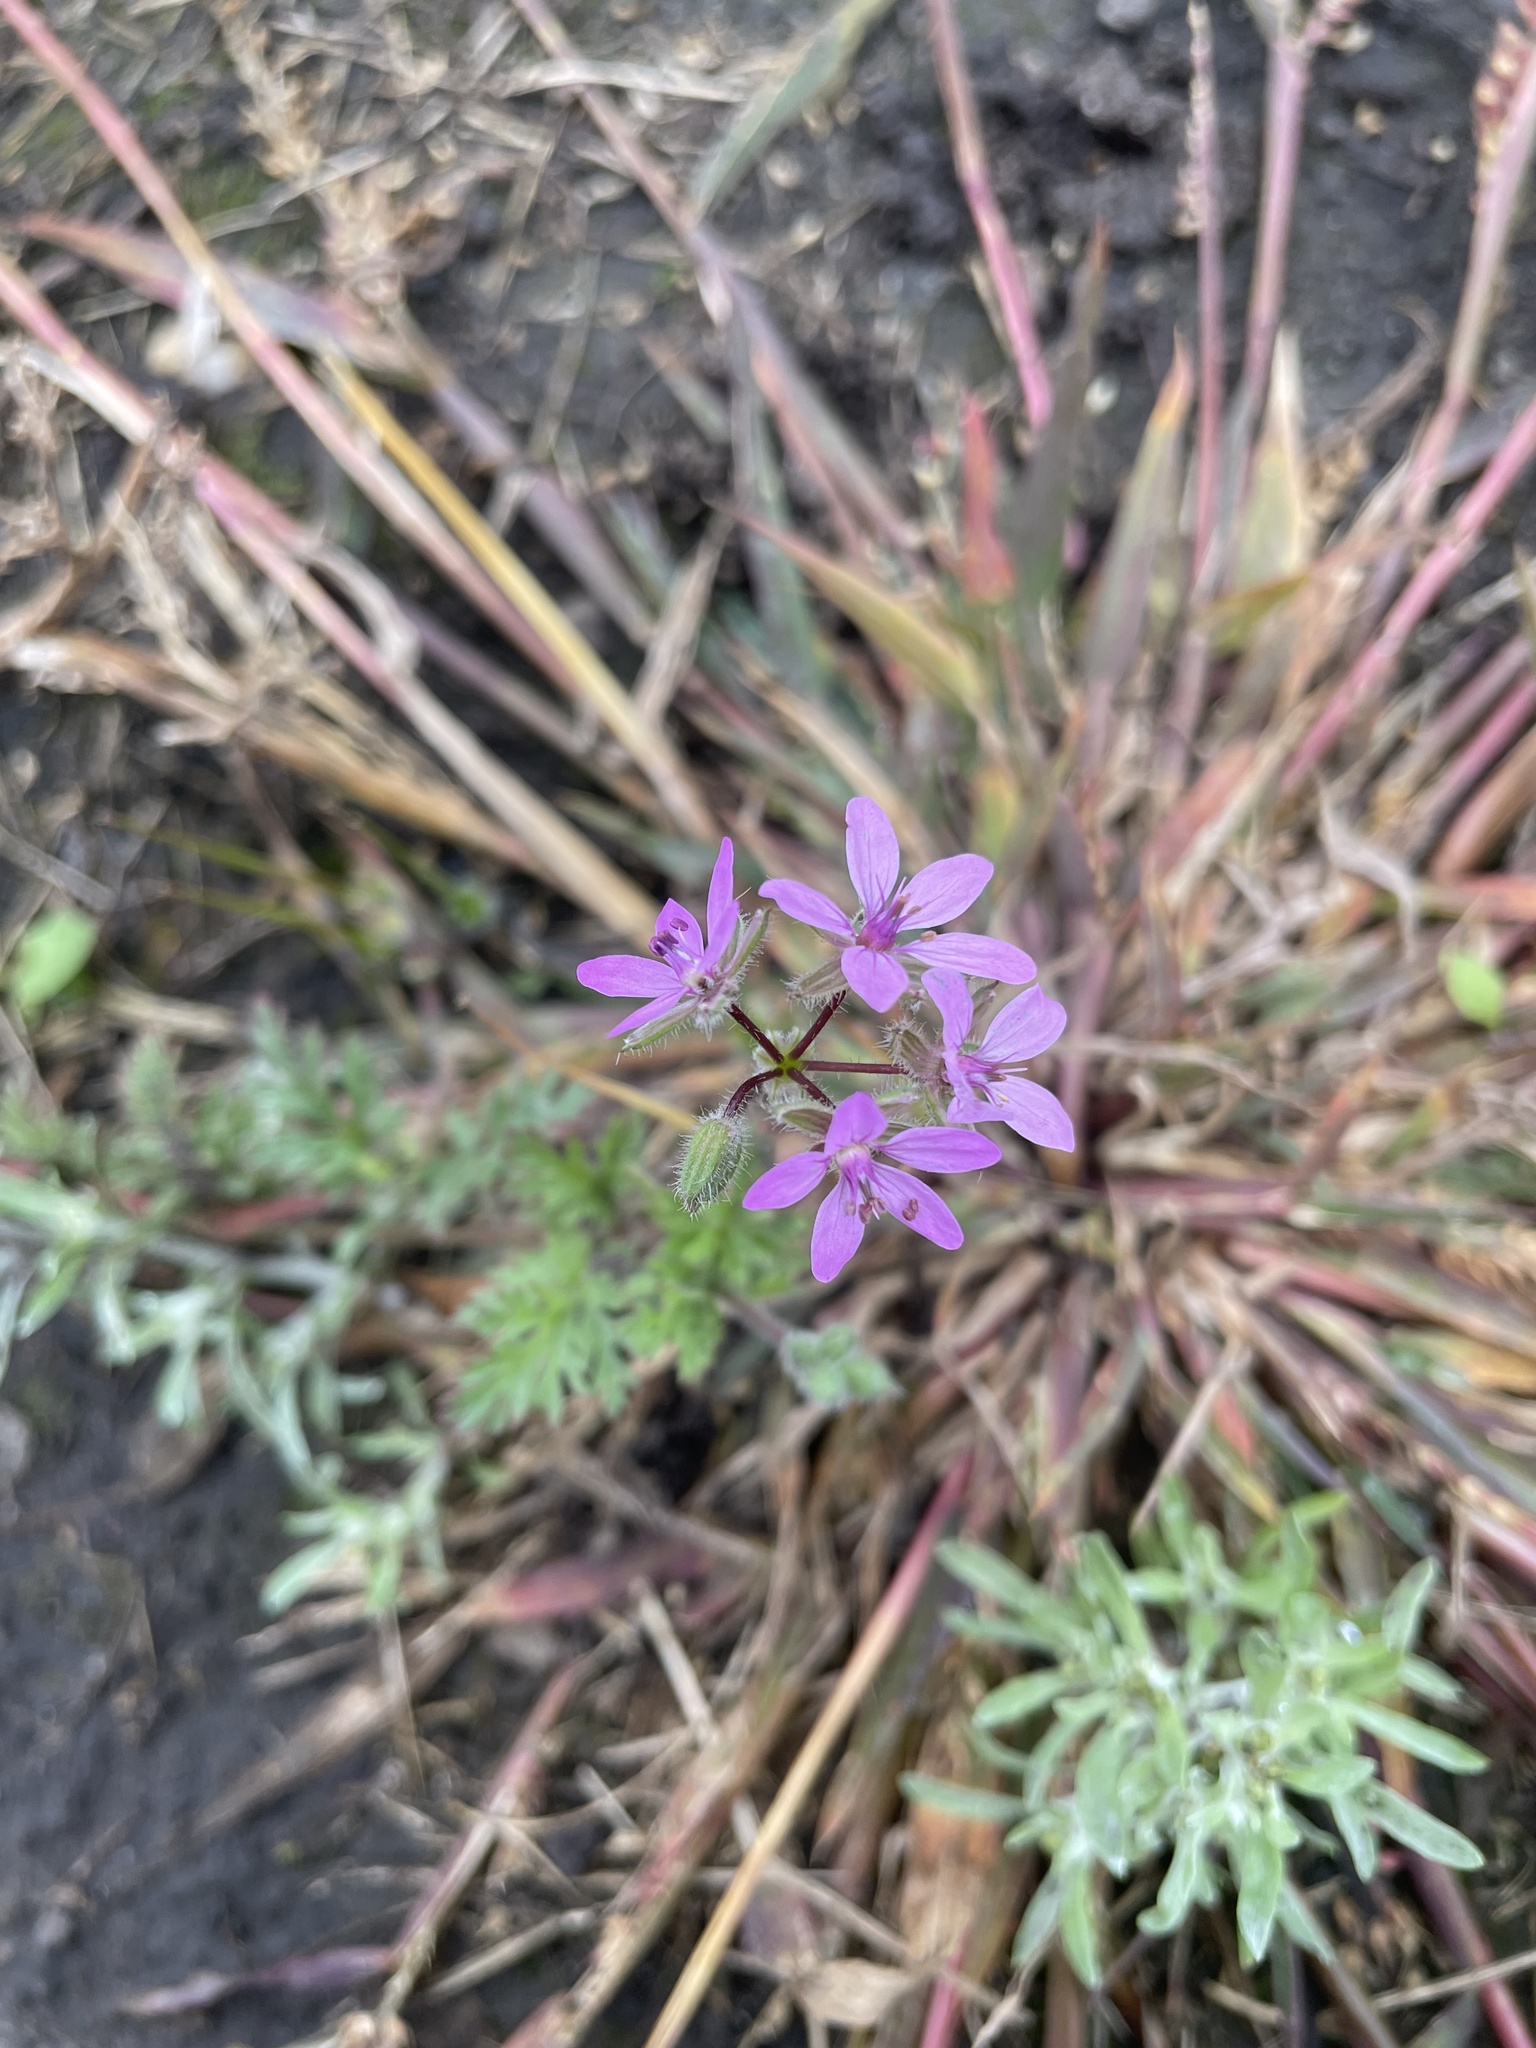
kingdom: Plantae
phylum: Tracheophyta
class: Magnoliopsida
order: Geraniales
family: Geraniaceae
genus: Erodium
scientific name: Erodium cicutarium
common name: Common stork's-bill
